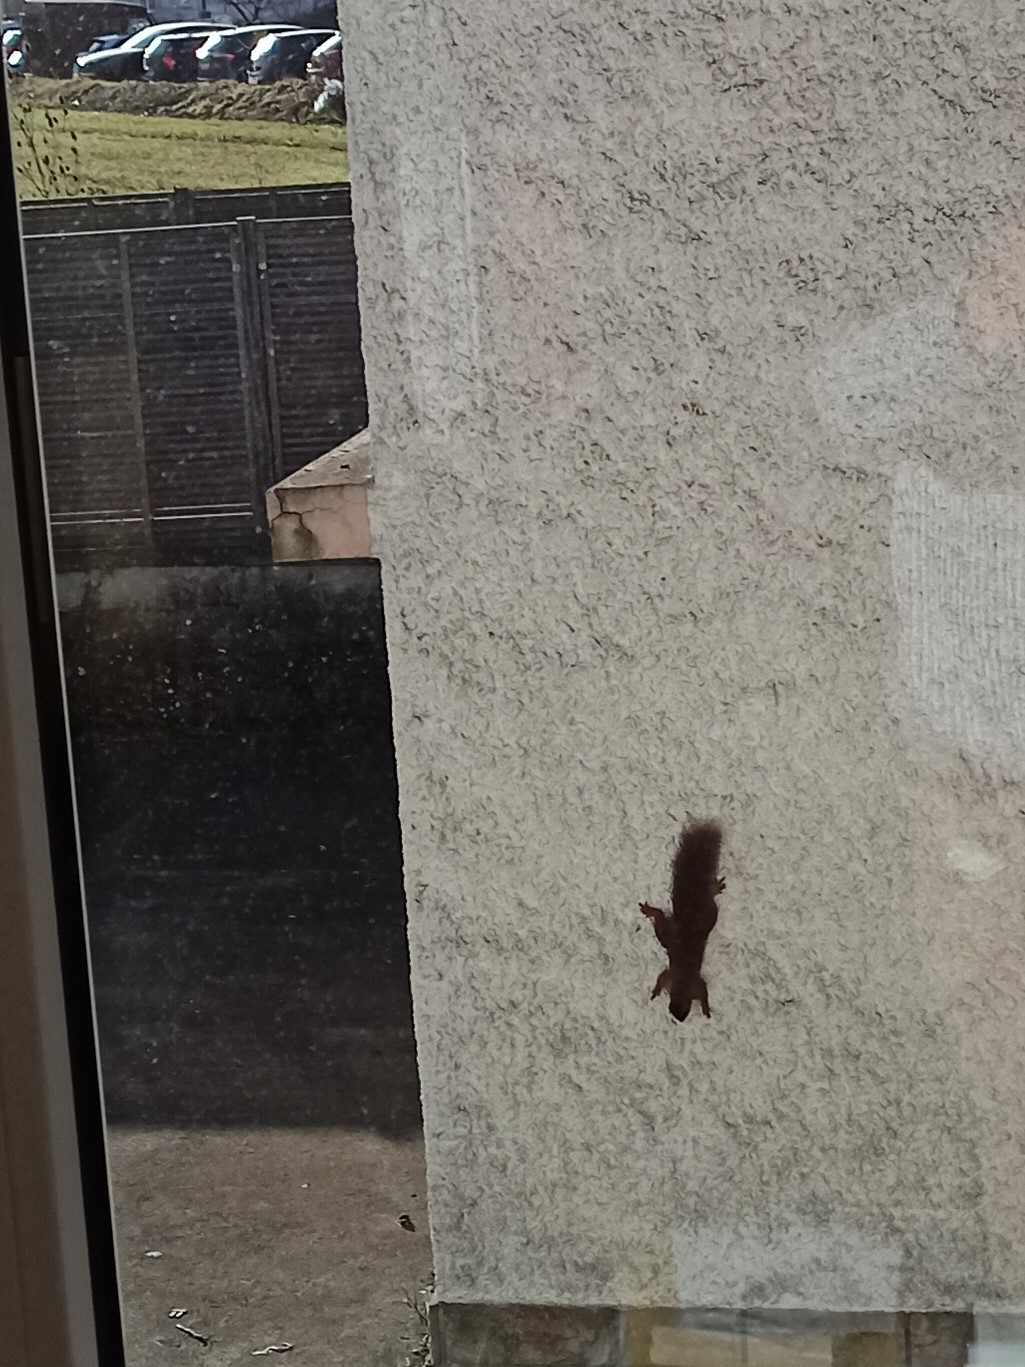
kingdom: Animalia
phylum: Chordata
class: Mammalia
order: Rodentia
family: Sciuridae
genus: Sciurus
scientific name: Sciurus vulgaris
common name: Eurasian red squirrel
